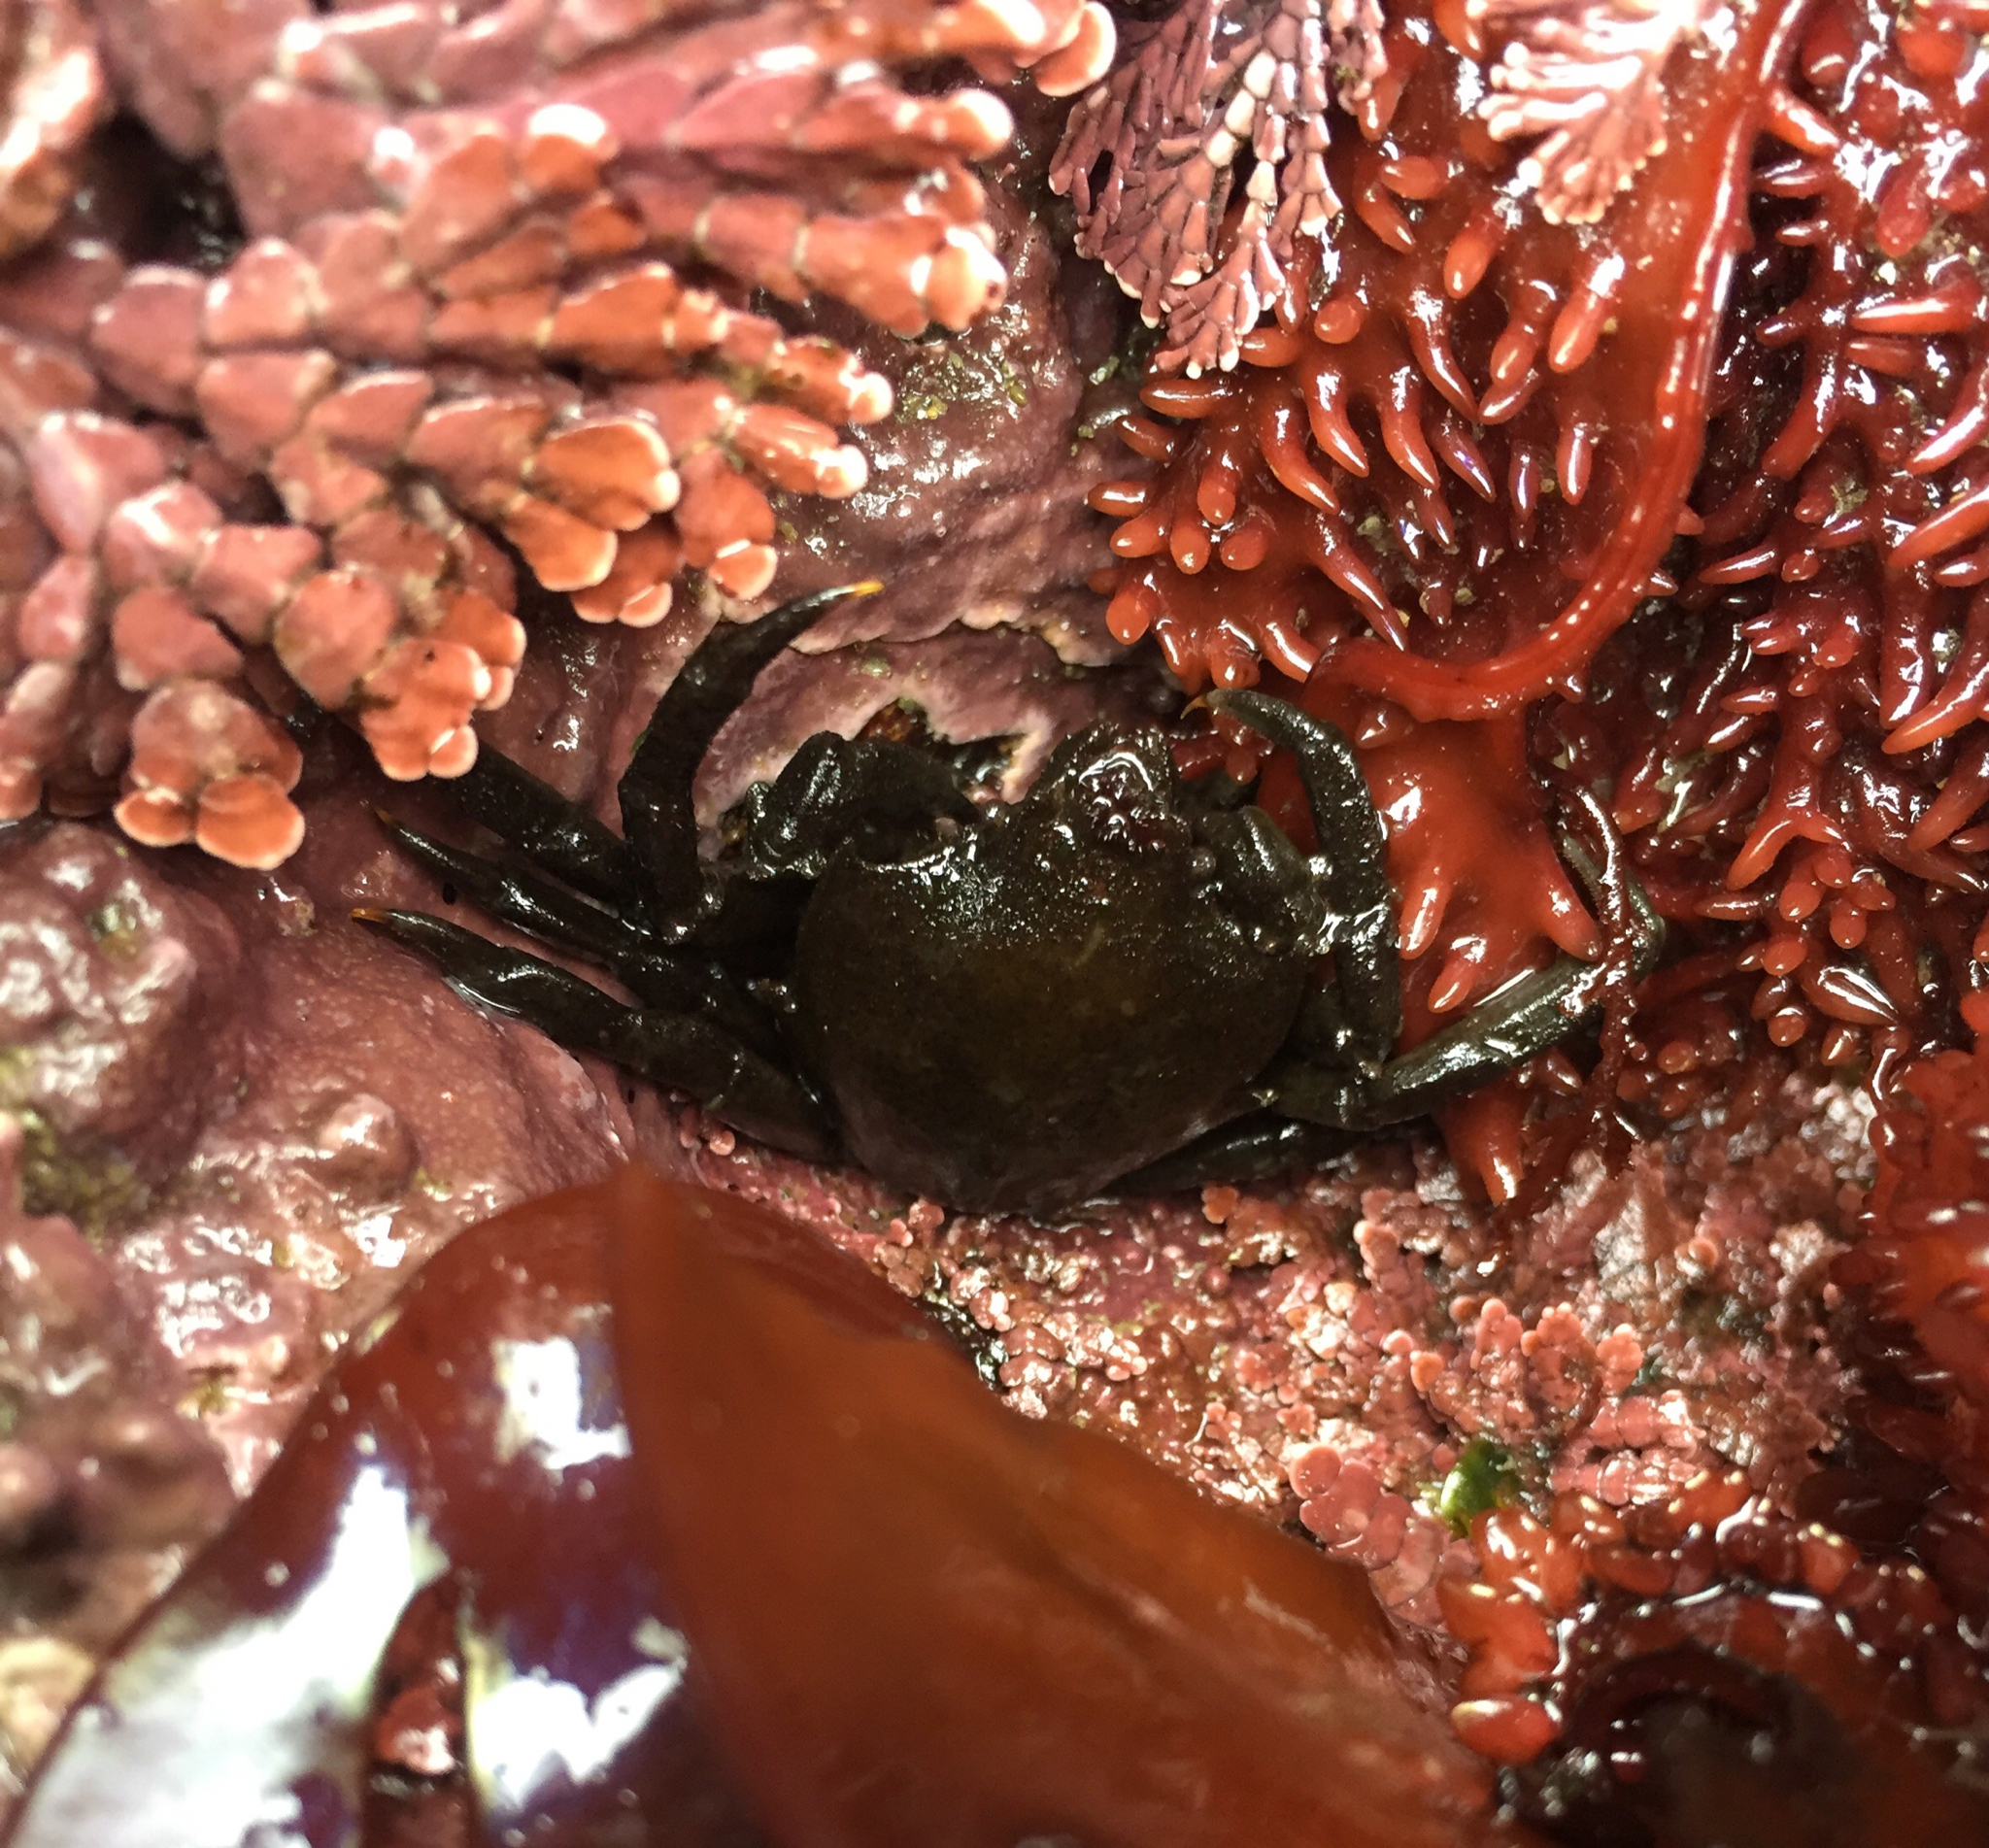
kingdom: Animalia
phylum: Arthropoda
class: Malacostraca
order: Decapoda
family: Epialtidae
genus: Pugettia
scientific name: Pugettia producta
